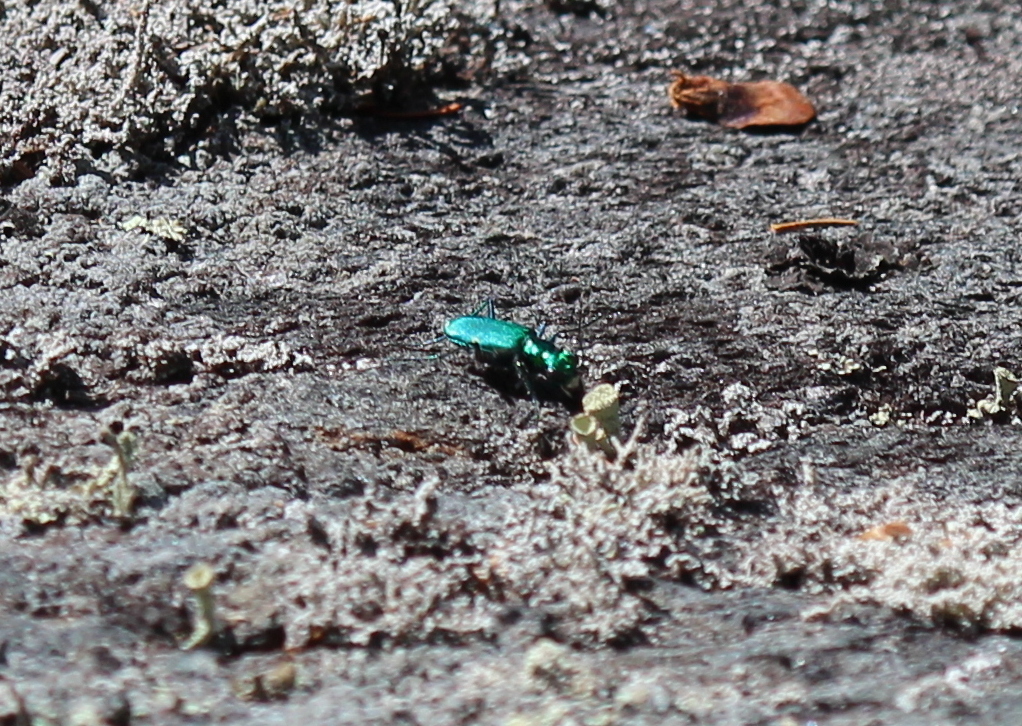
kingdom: Animalia
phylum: Arthropoda
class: Insecta
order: Coleoptera
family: Carabidae
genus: Cicindela
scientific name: Cicindela sexguttata
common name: Six-spotted tiger beetle
